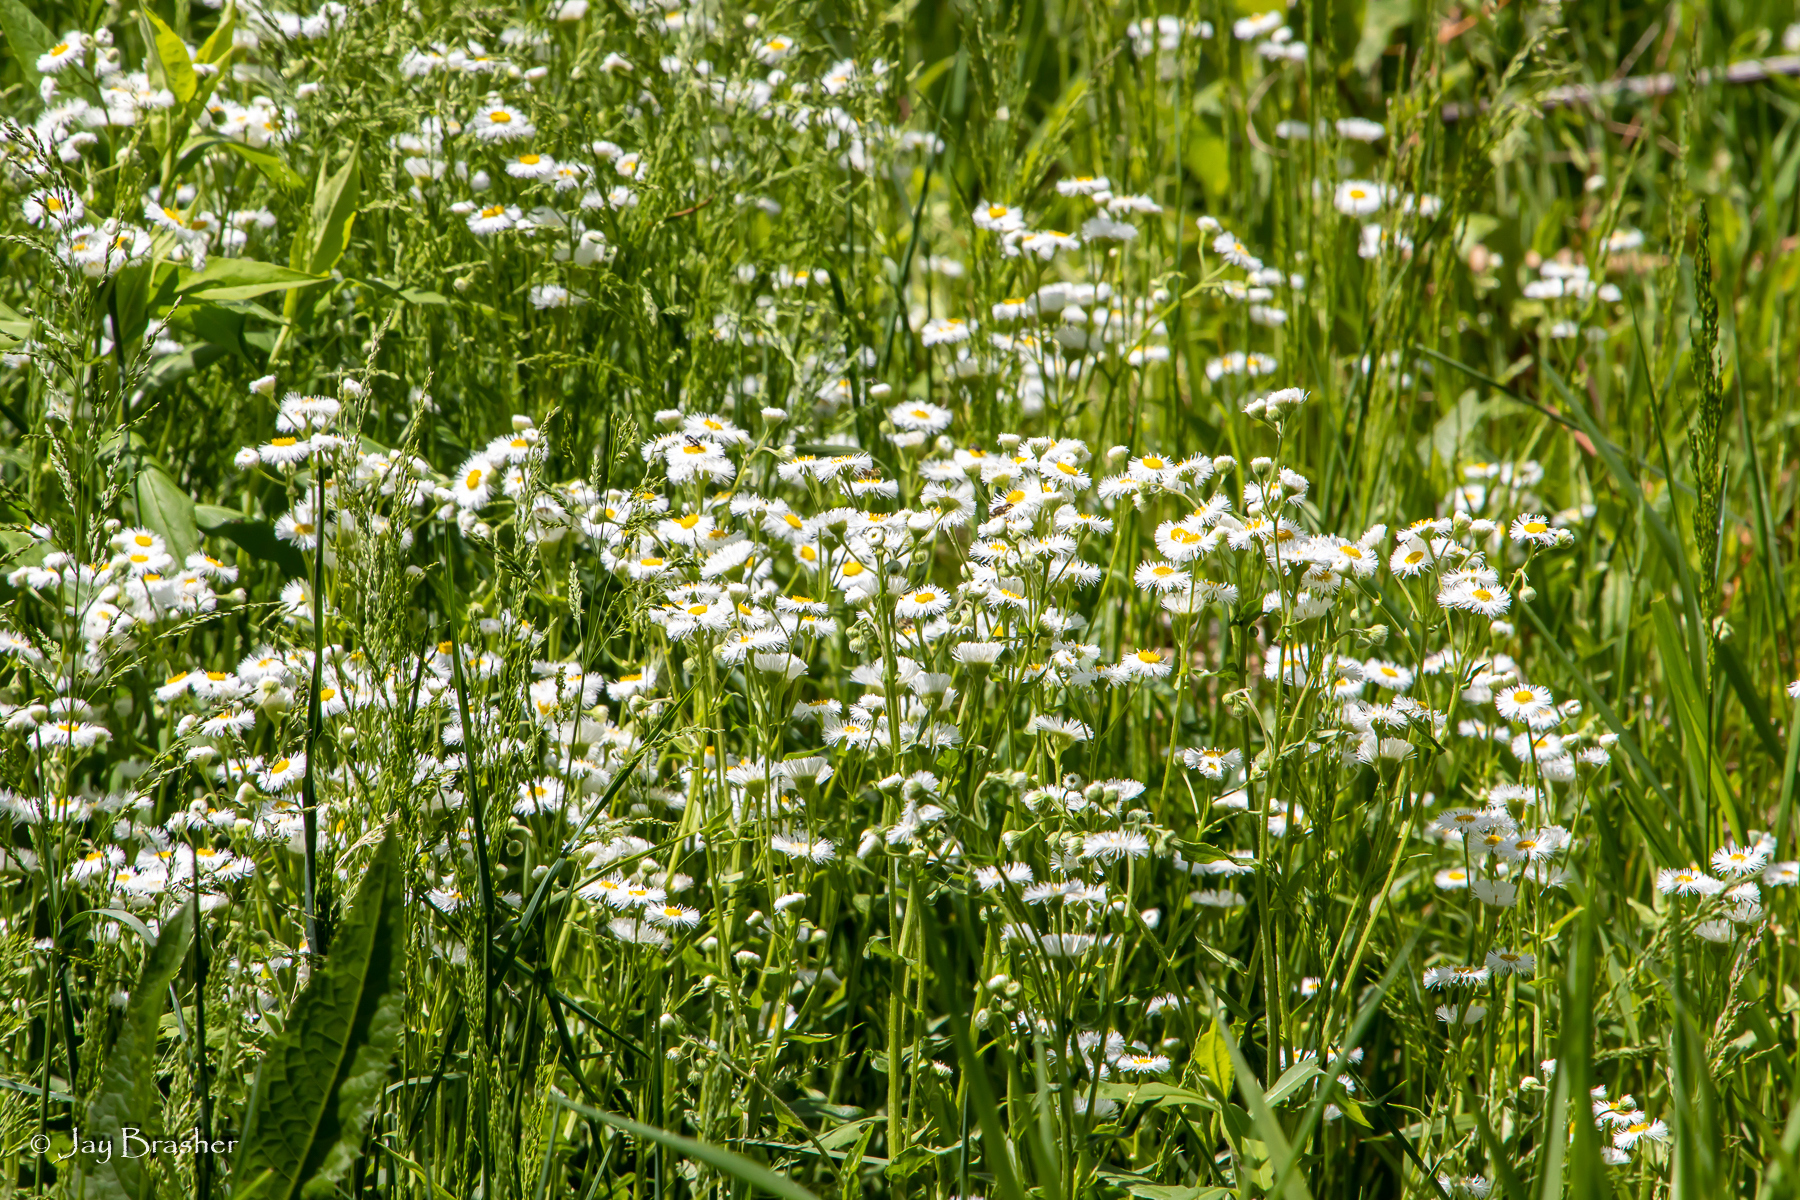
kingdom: Plantae
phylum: Tracheophyta
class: Magnoliopsida
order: Asterales
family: Asteraceae
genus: Erigeron
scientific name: Erigeron philadelphicus
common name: Robin's-plantain
